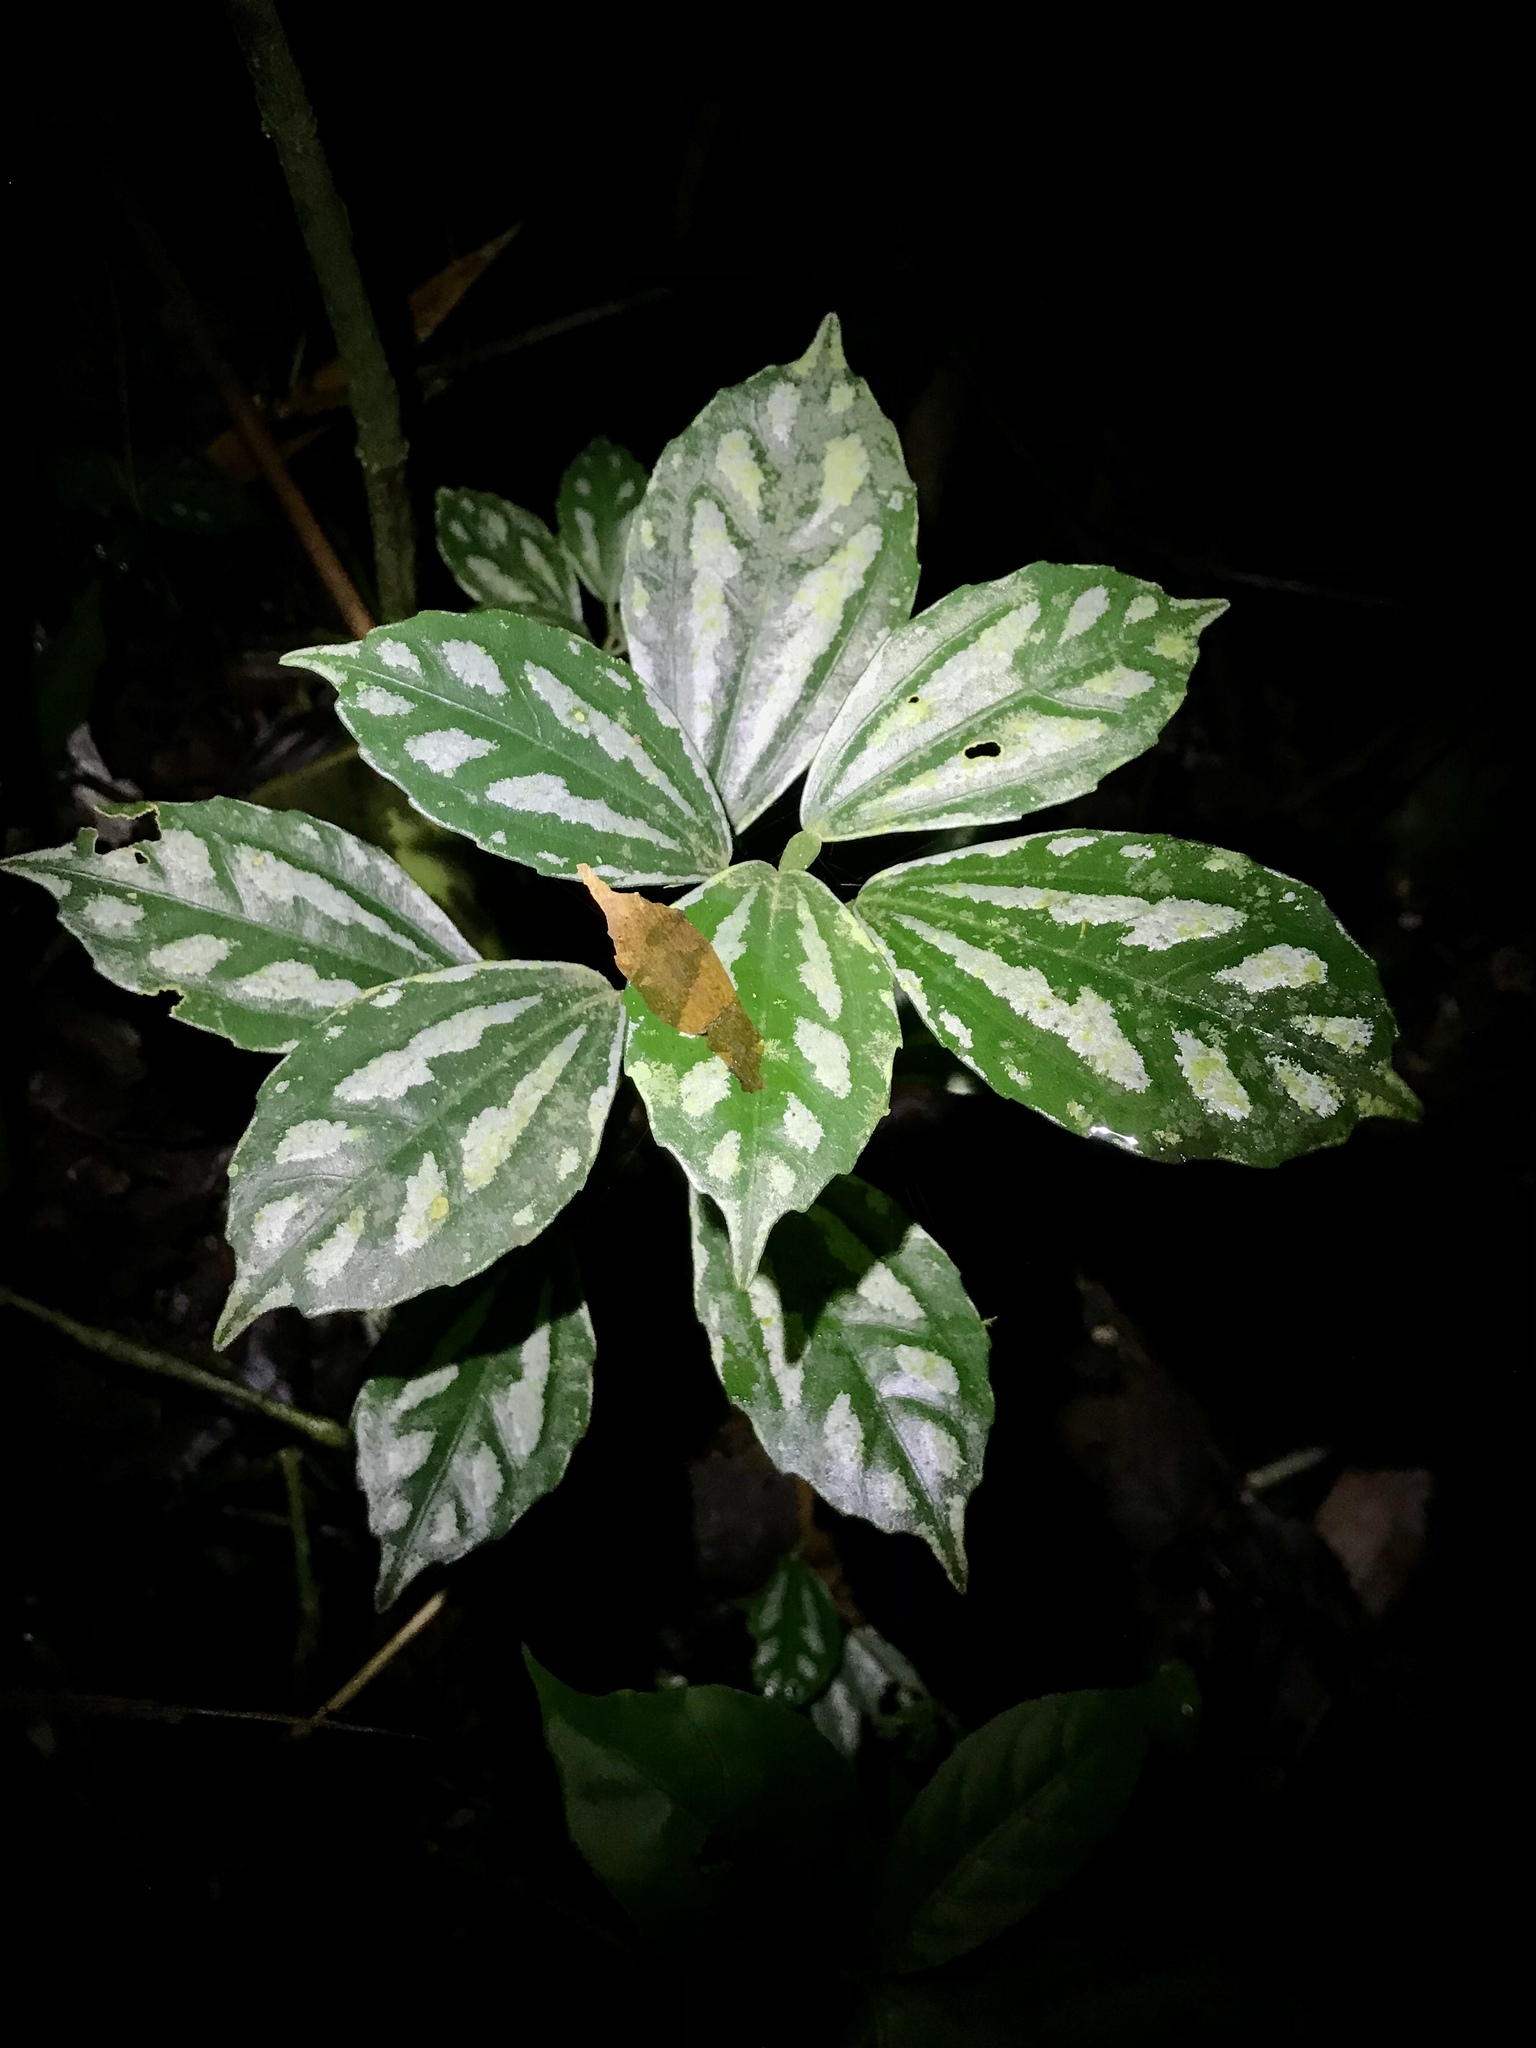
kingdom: Plantae
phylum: Tracheophyta
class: Magnoliopsida
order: Rosales
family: Urticaceae
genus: Pilea
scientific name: Pilea cadierei
